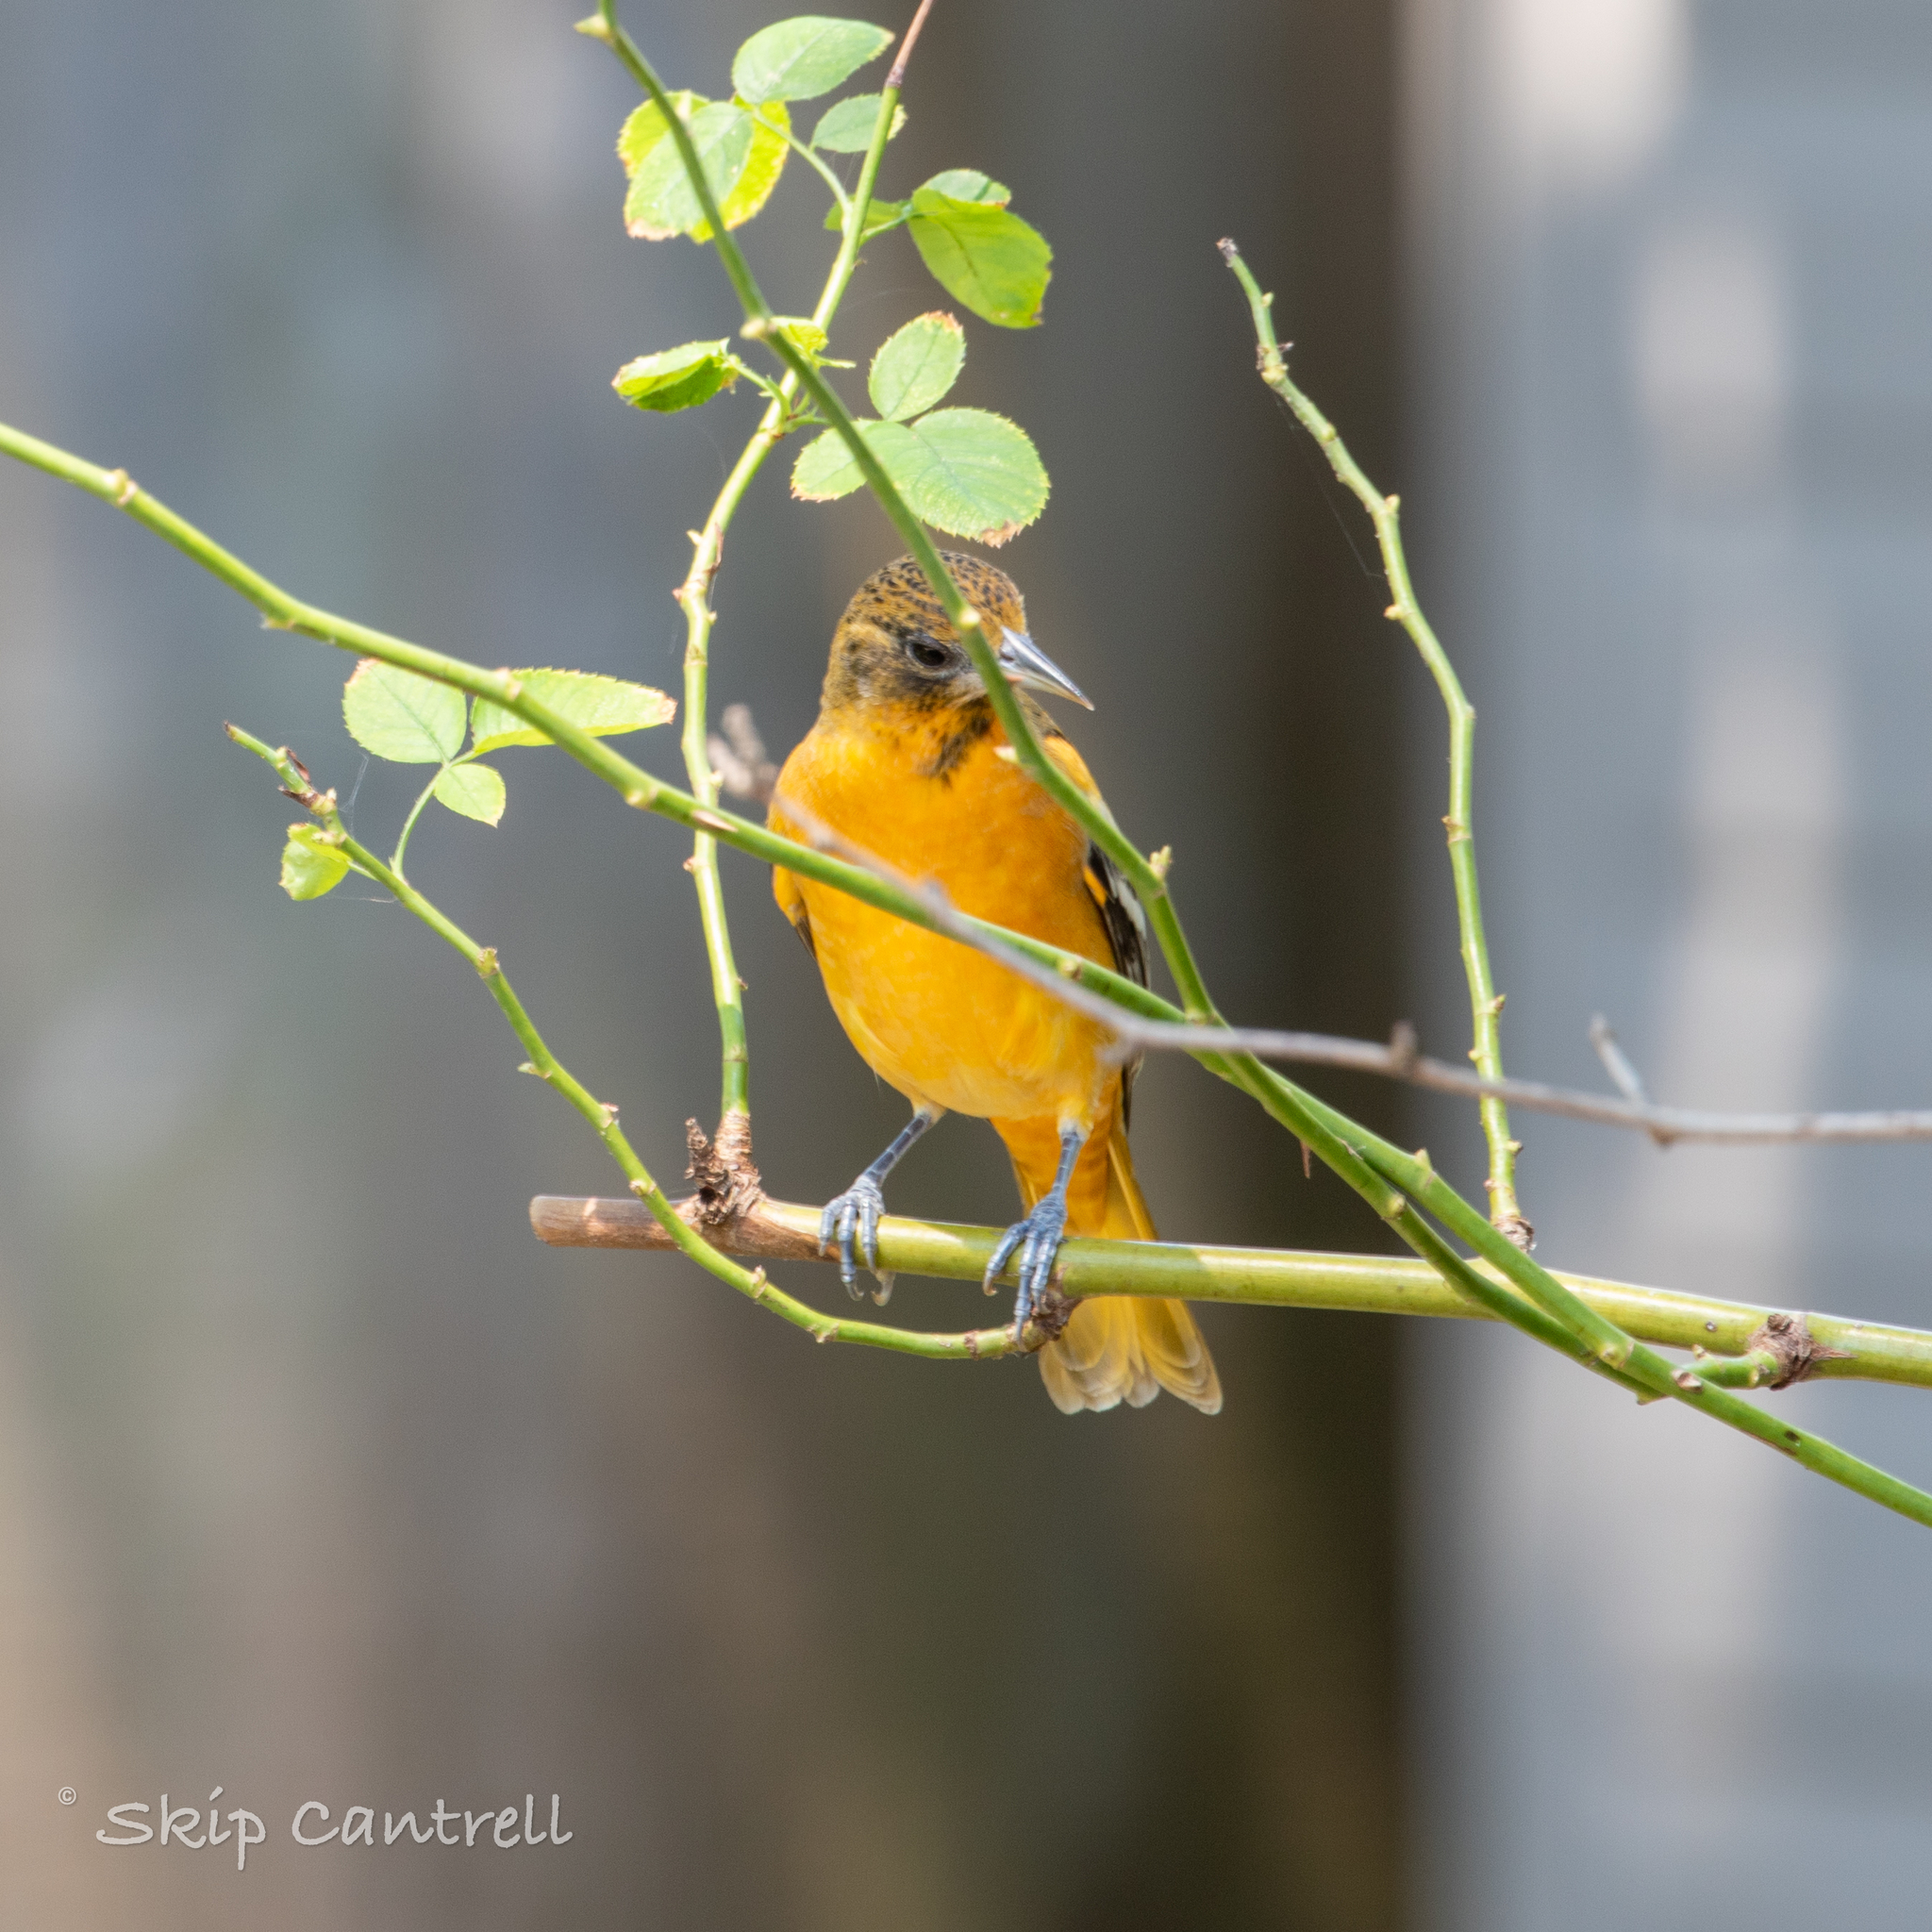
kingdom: Animalia
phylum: Chordata
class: Aves
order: Passeriformes
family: Icteridae
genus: Icterus
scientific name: Icterus galbula
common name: Baltimore oriole
